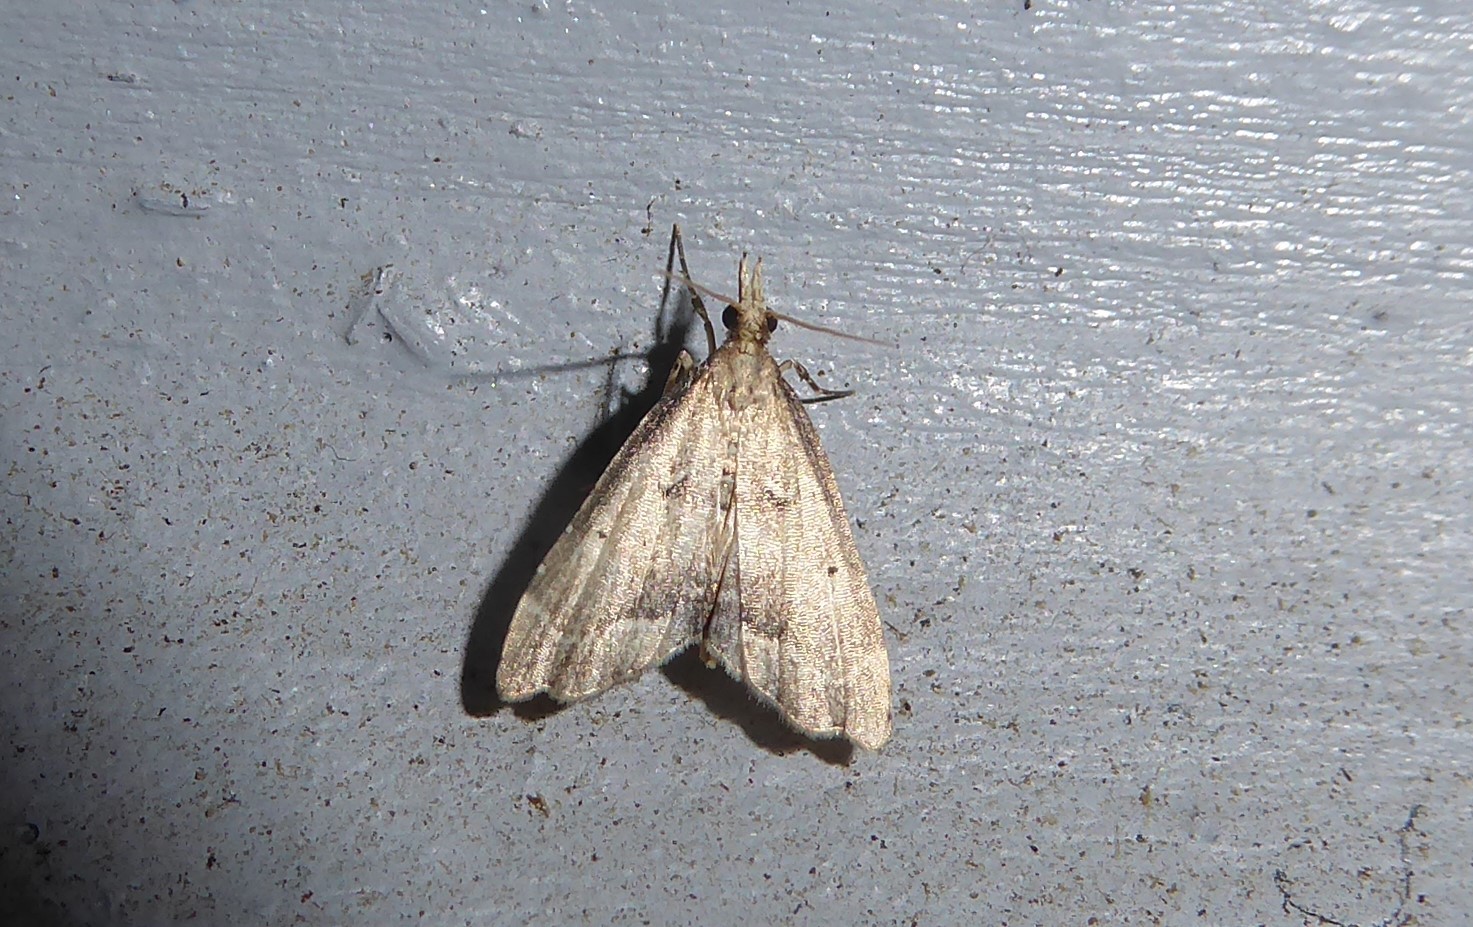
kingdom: Animalia
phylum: Arthropoda
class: Insecta
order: Lepidoptera
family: Crambidae
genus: Diplopseustis
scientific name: Diplopseustis perieresalis
